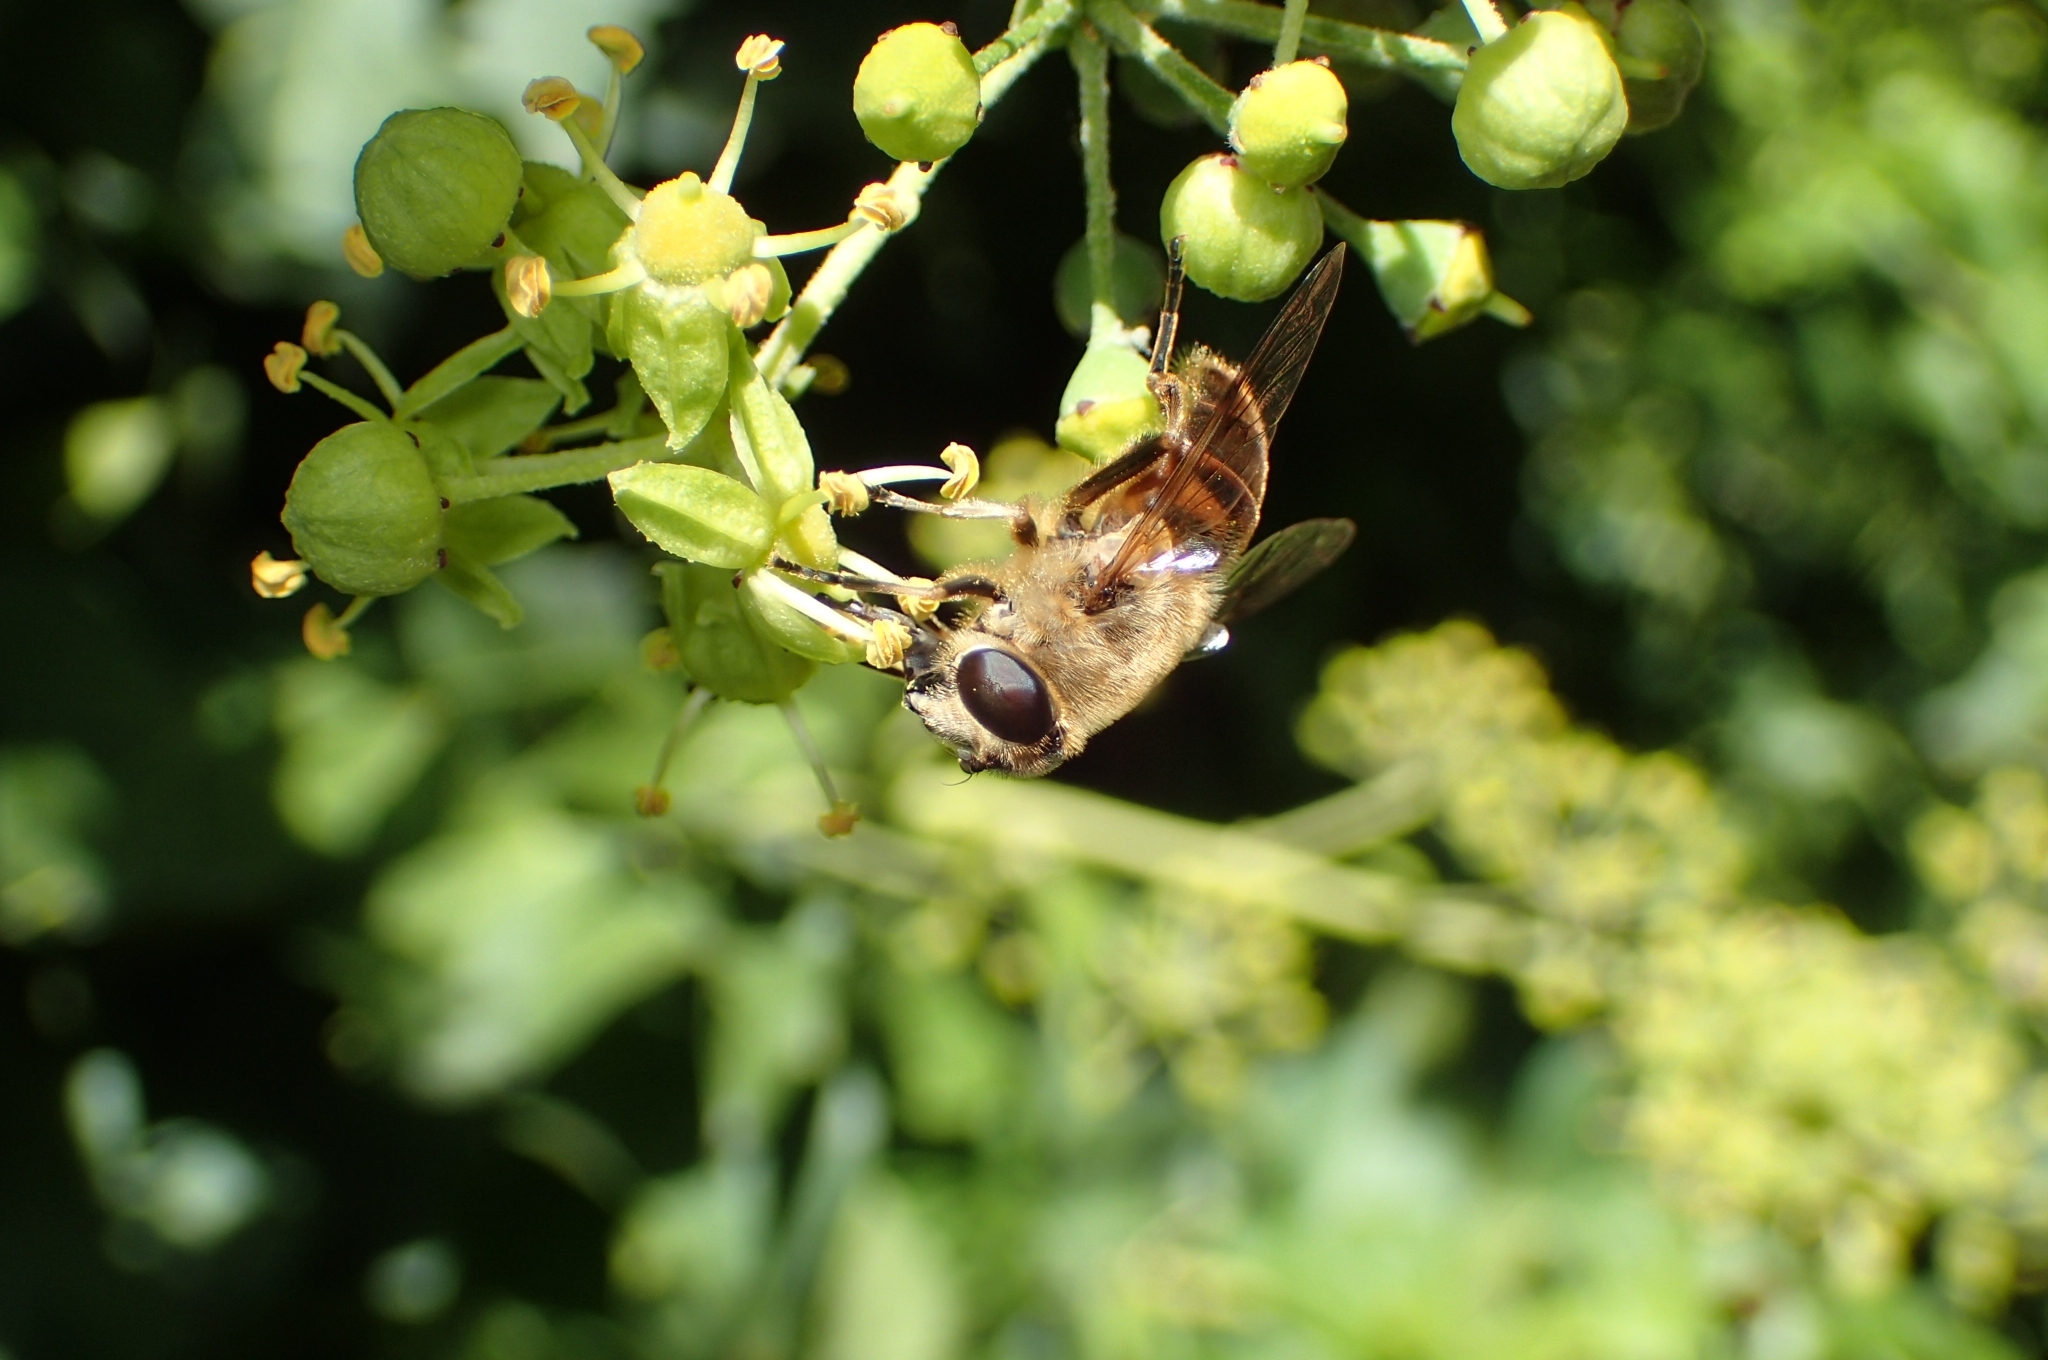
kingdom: Animalia
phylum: Arthropoda
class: Insecta
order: Diptera
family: Syrphidae
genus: Eristalis
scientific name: Eristalis tenax
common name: Drone fly
